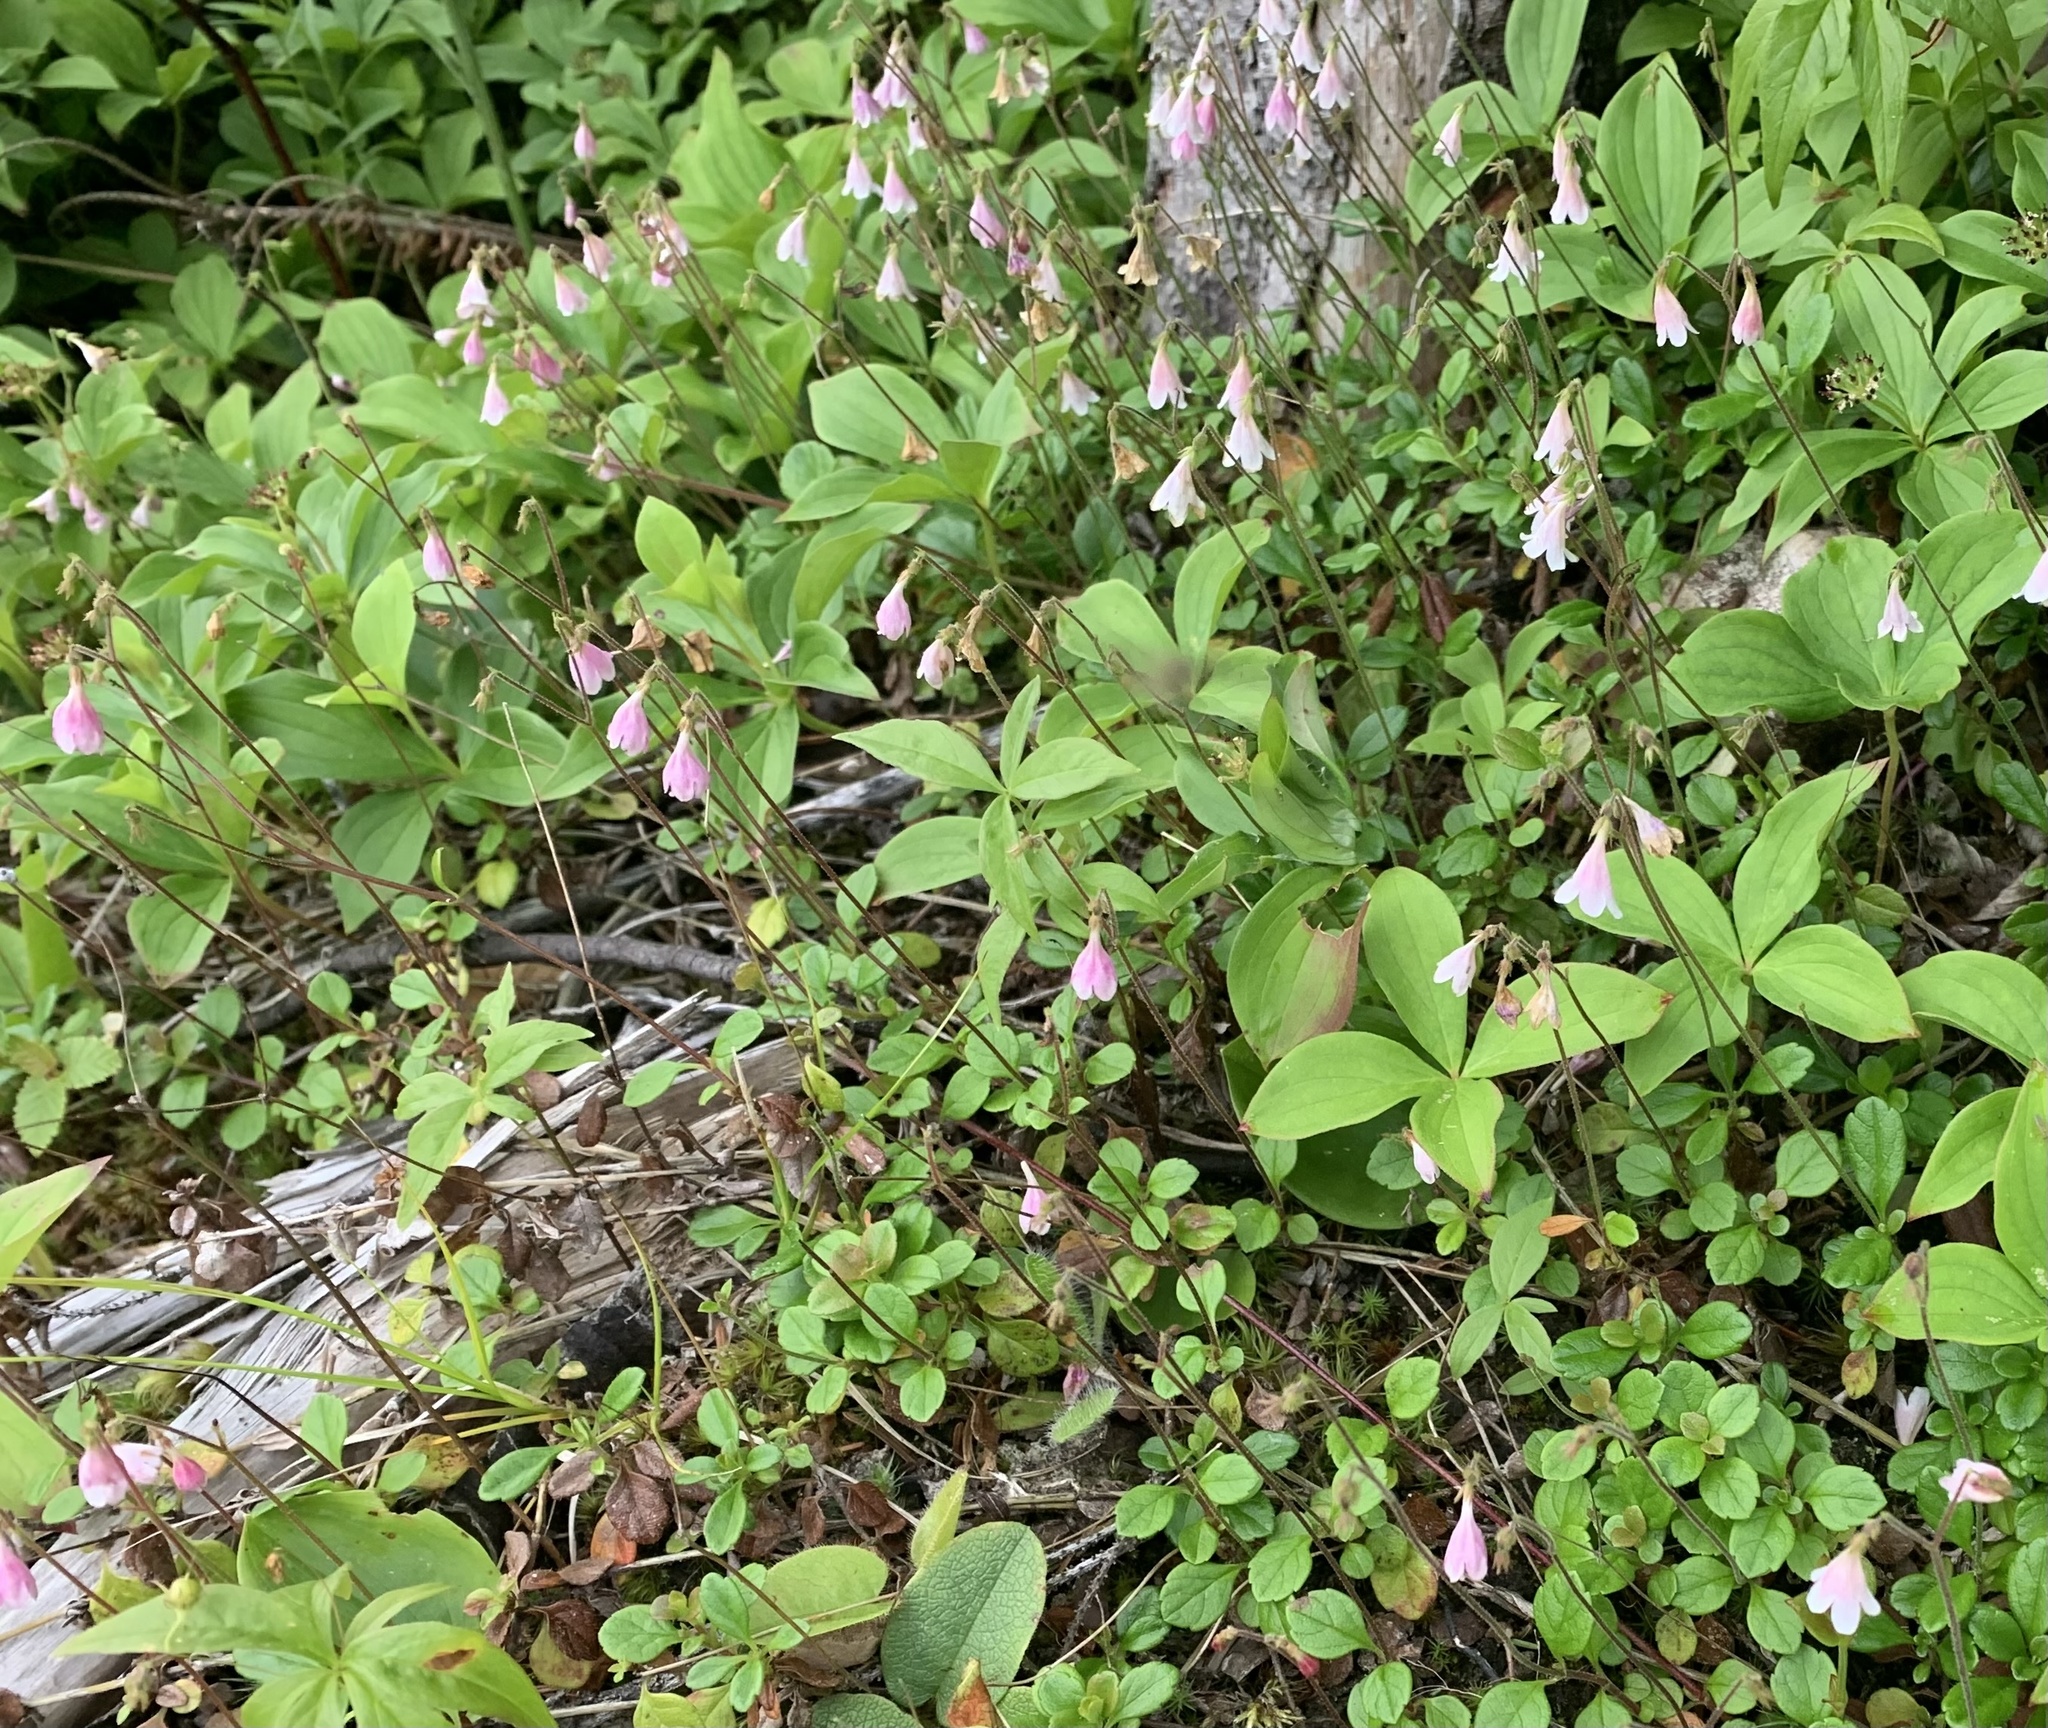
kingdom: Plantae
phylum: Tracheophyta
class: Magnoliopsida
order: Dipsacales
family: Caprifoliaceae
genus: Linnaea
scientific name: Linnaea borealis
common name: Twinflower
